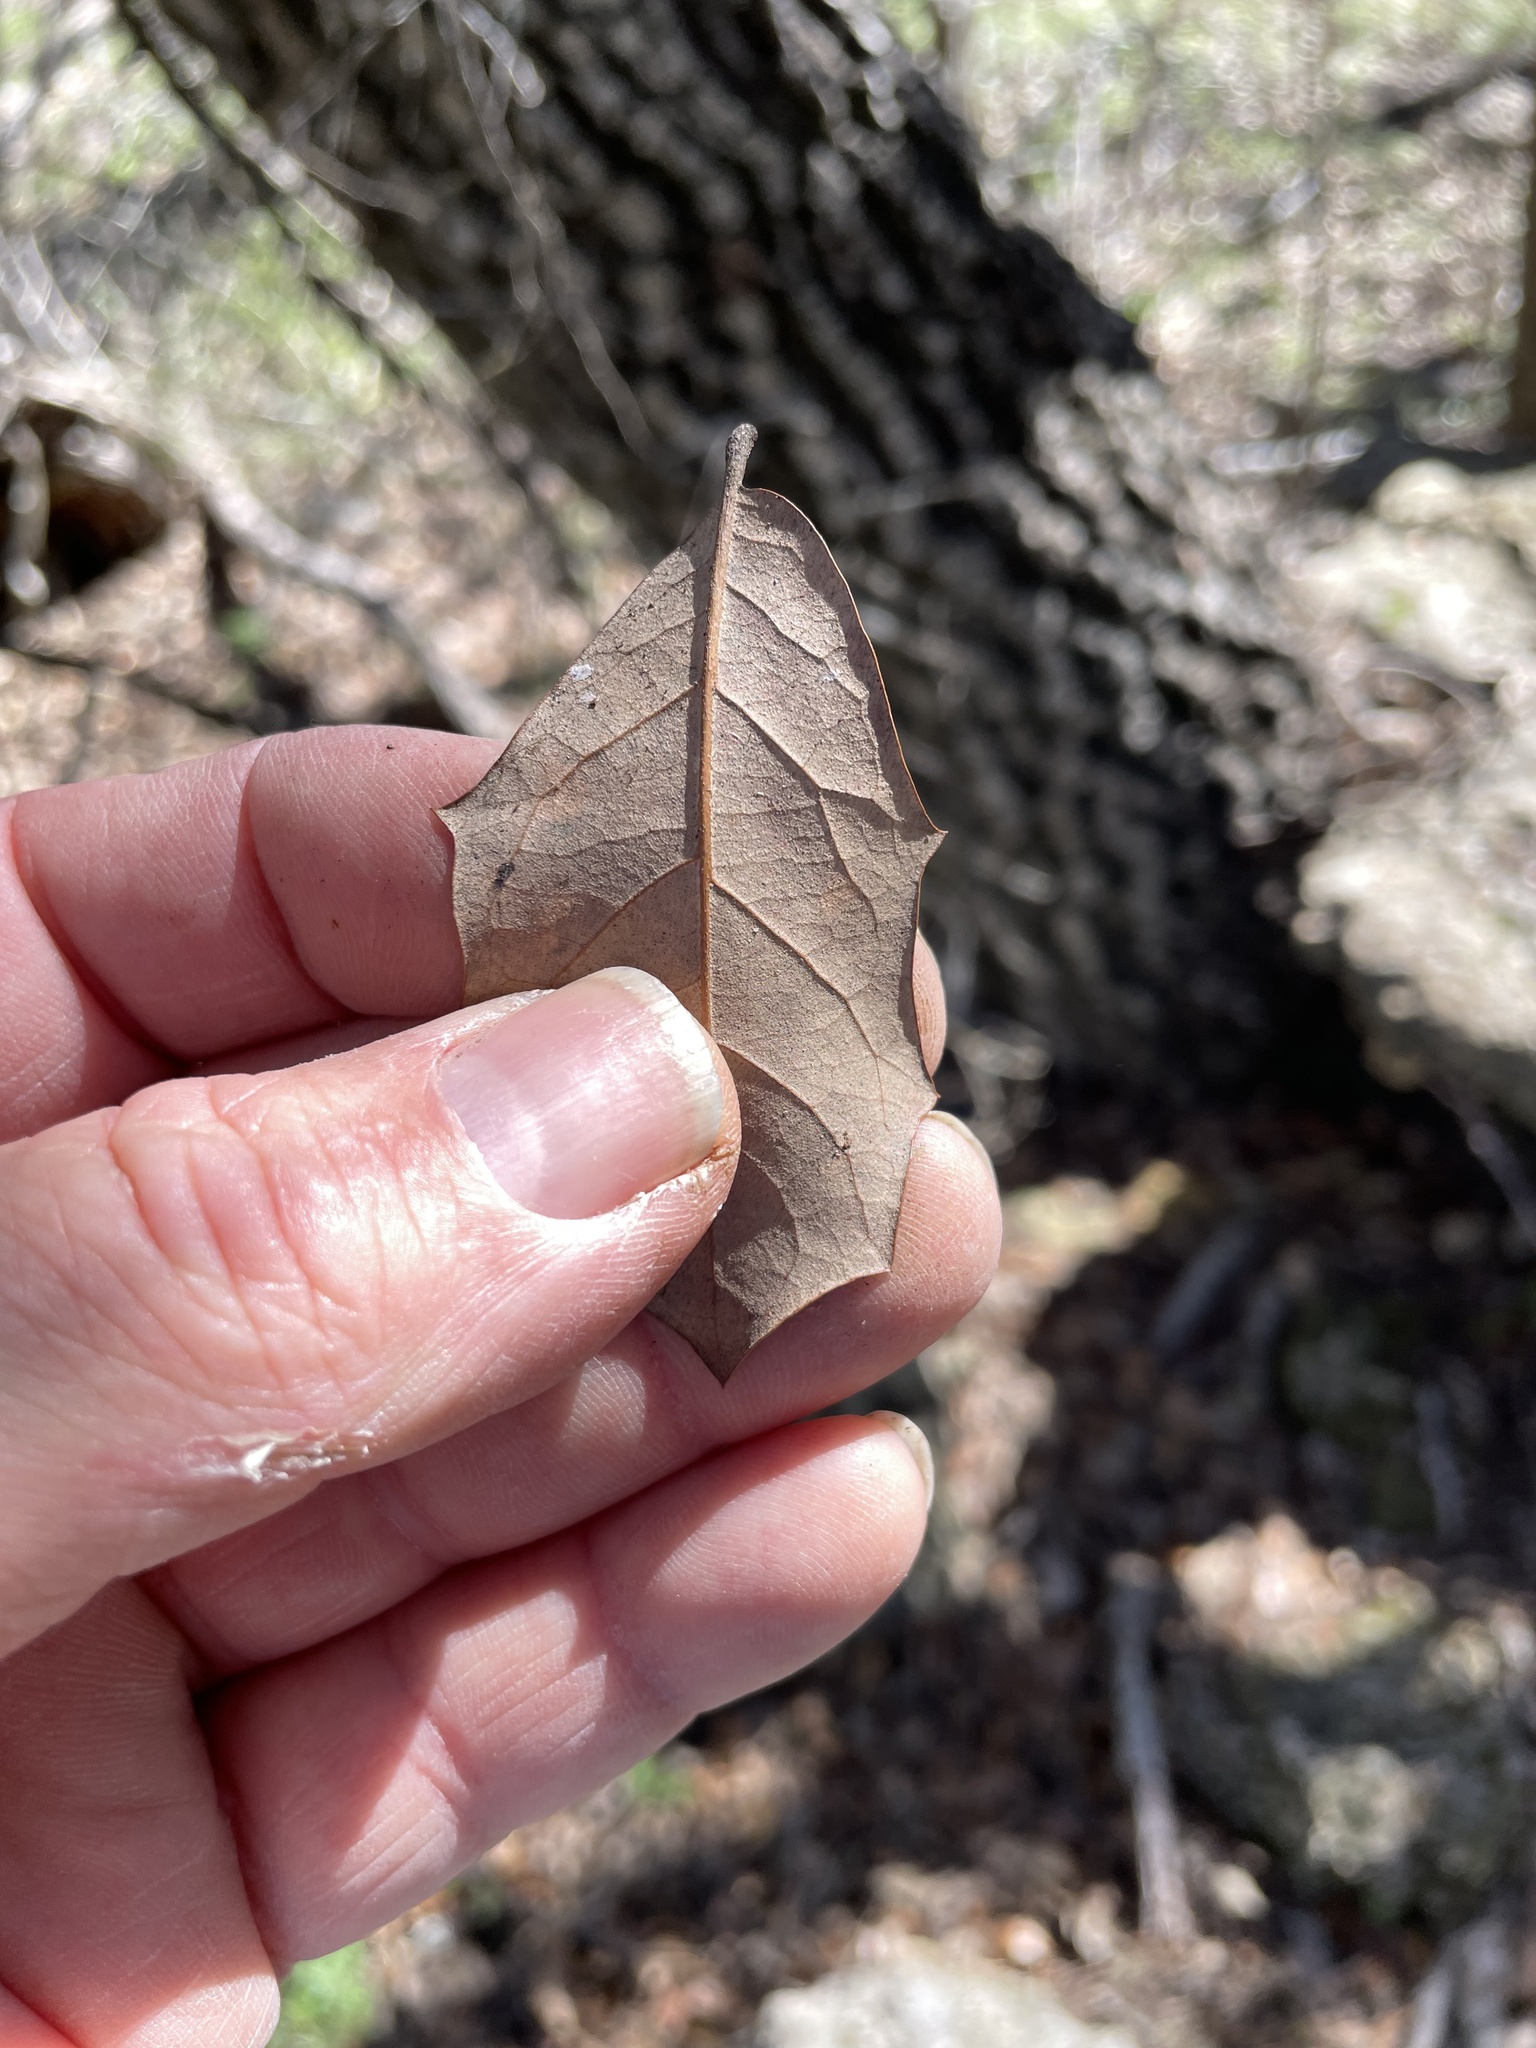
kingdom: Plantae
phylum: Tracheophyta
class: Magnoliopsida
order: Fagales
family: Fagaceae
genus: Quercus
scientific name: Quercus fusiformis
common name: Texas live oak
